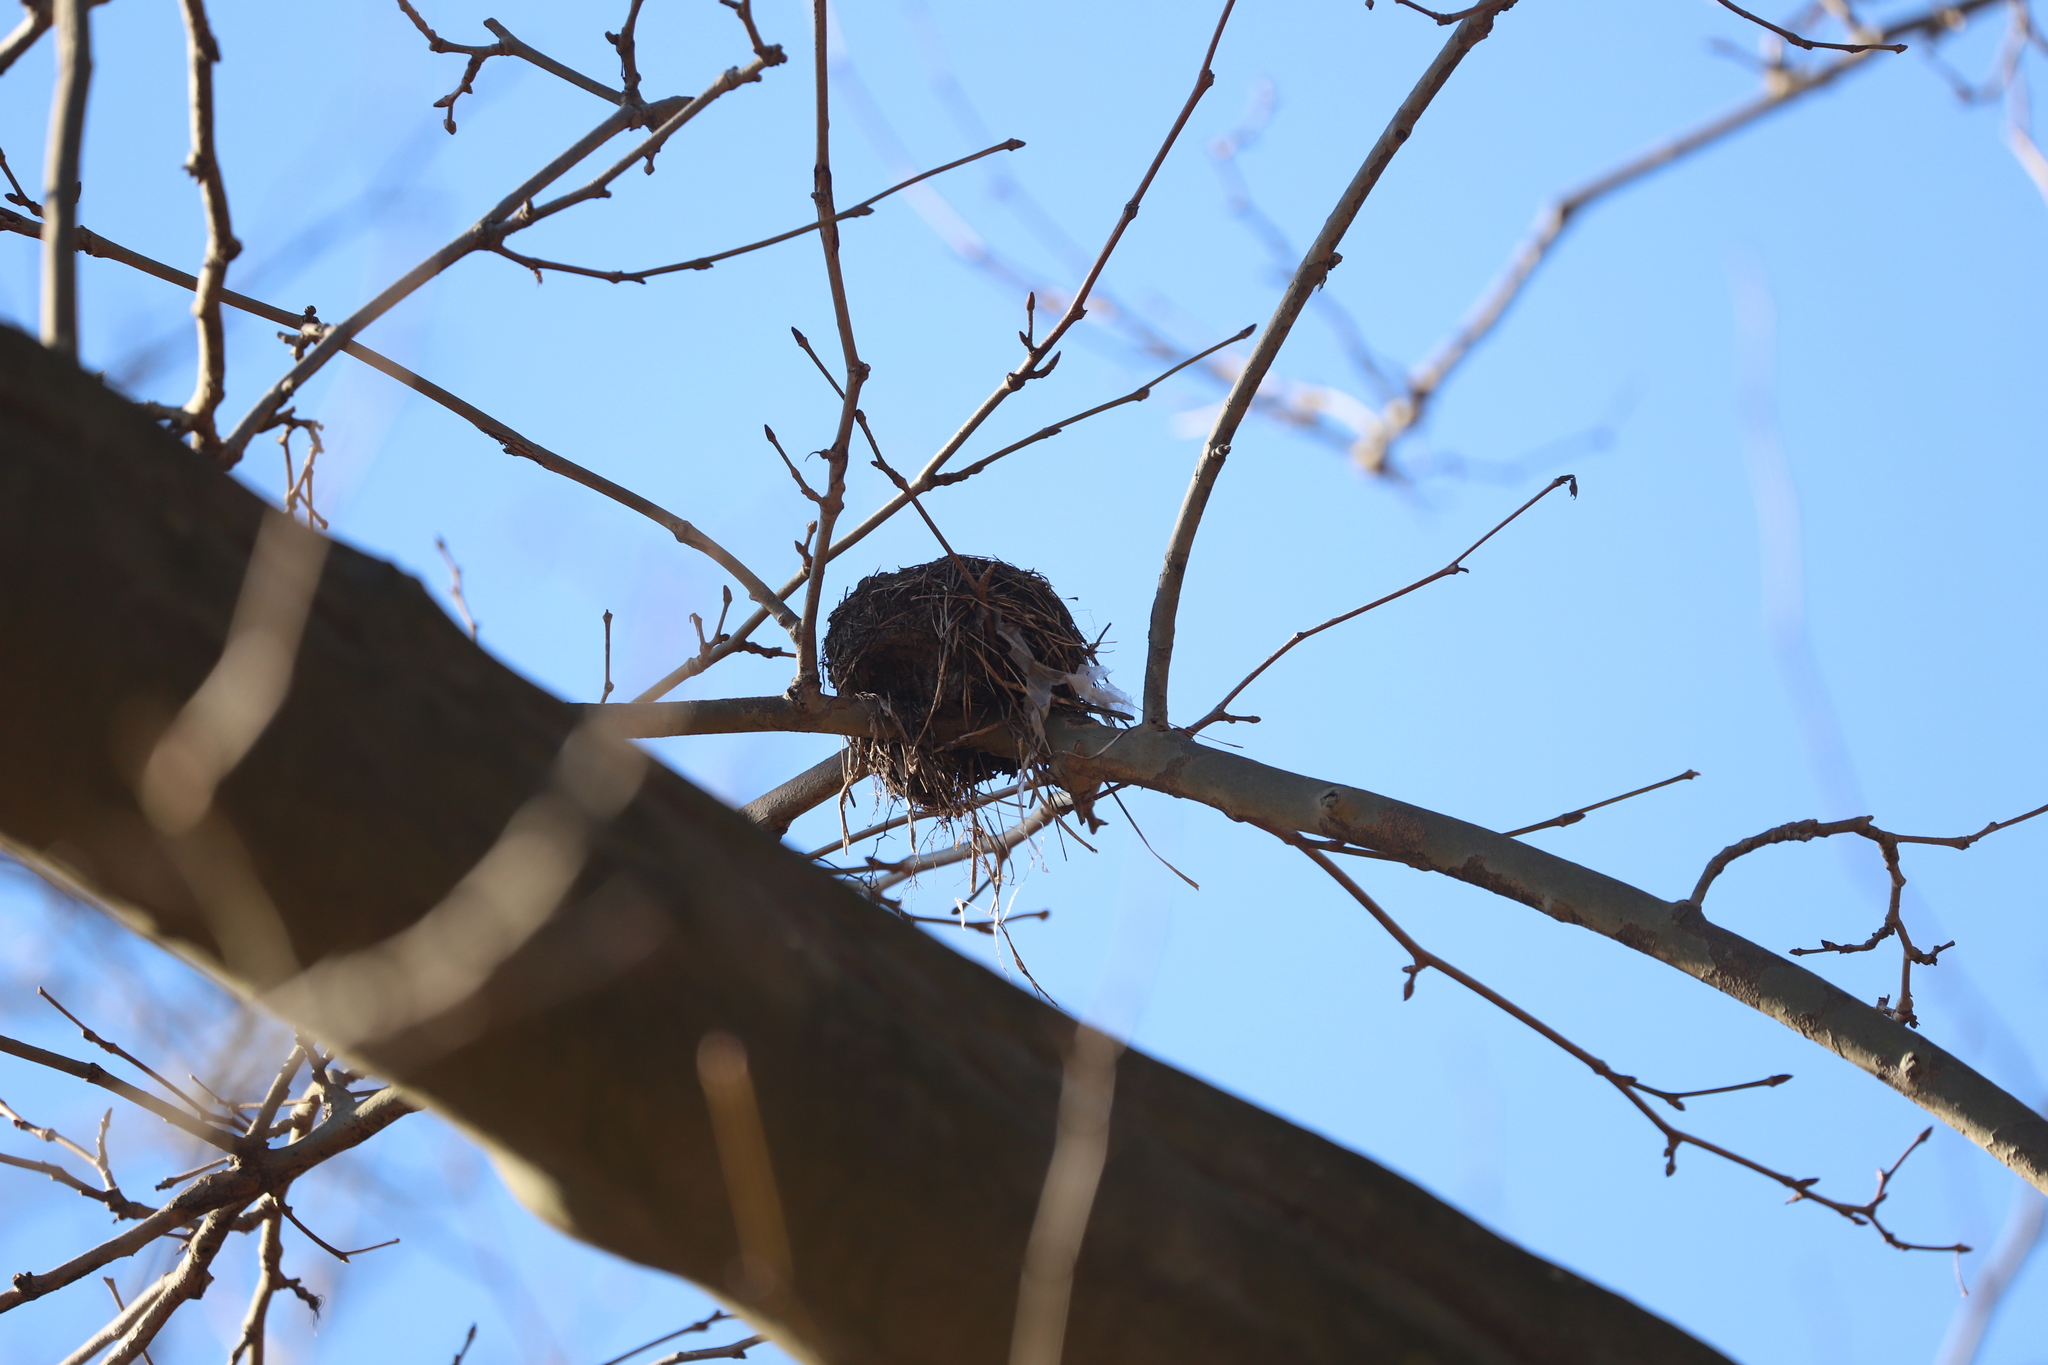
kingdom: Animalia
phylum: Chordata
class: Aves
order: Passeriformes
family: Turdidae
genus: Turdus
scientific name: Turdus migratorius
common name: American robin
